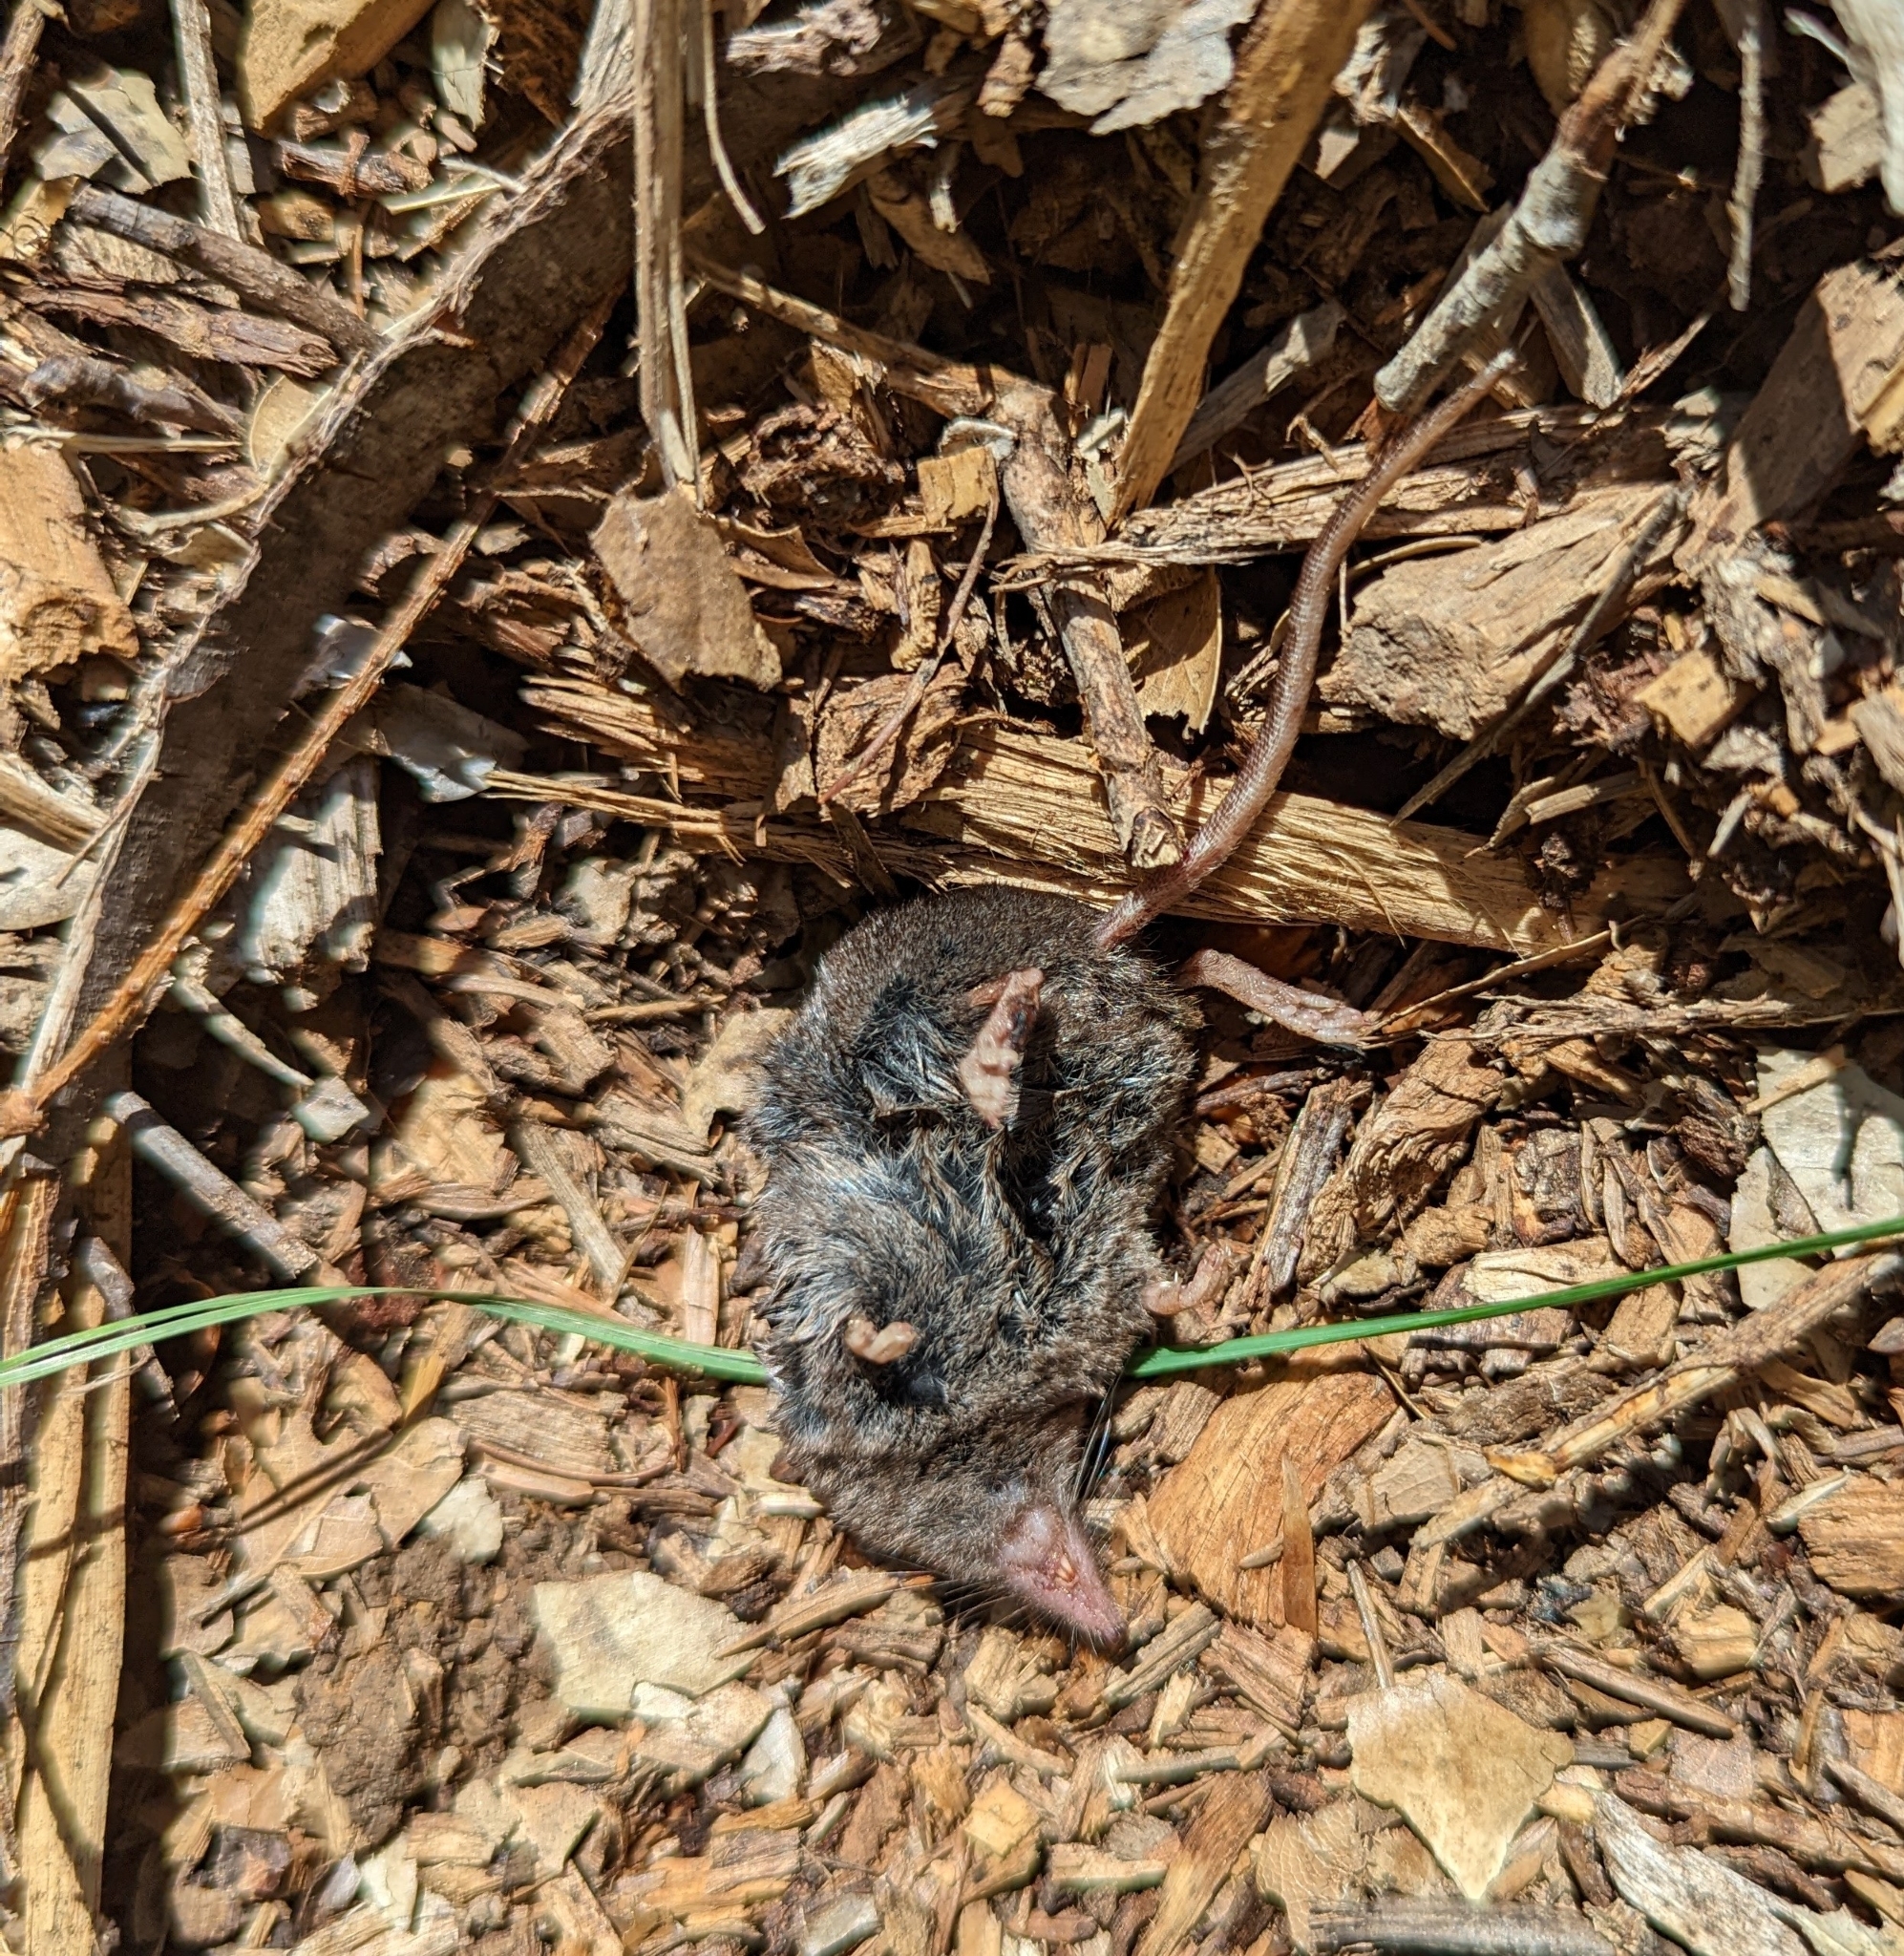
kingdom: Animalia
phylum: Chordata
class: Mammalia
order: Soricomorpha
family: Soricidae
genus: Sorex
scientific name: Sorex vagrans
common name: Vagrant shrew
